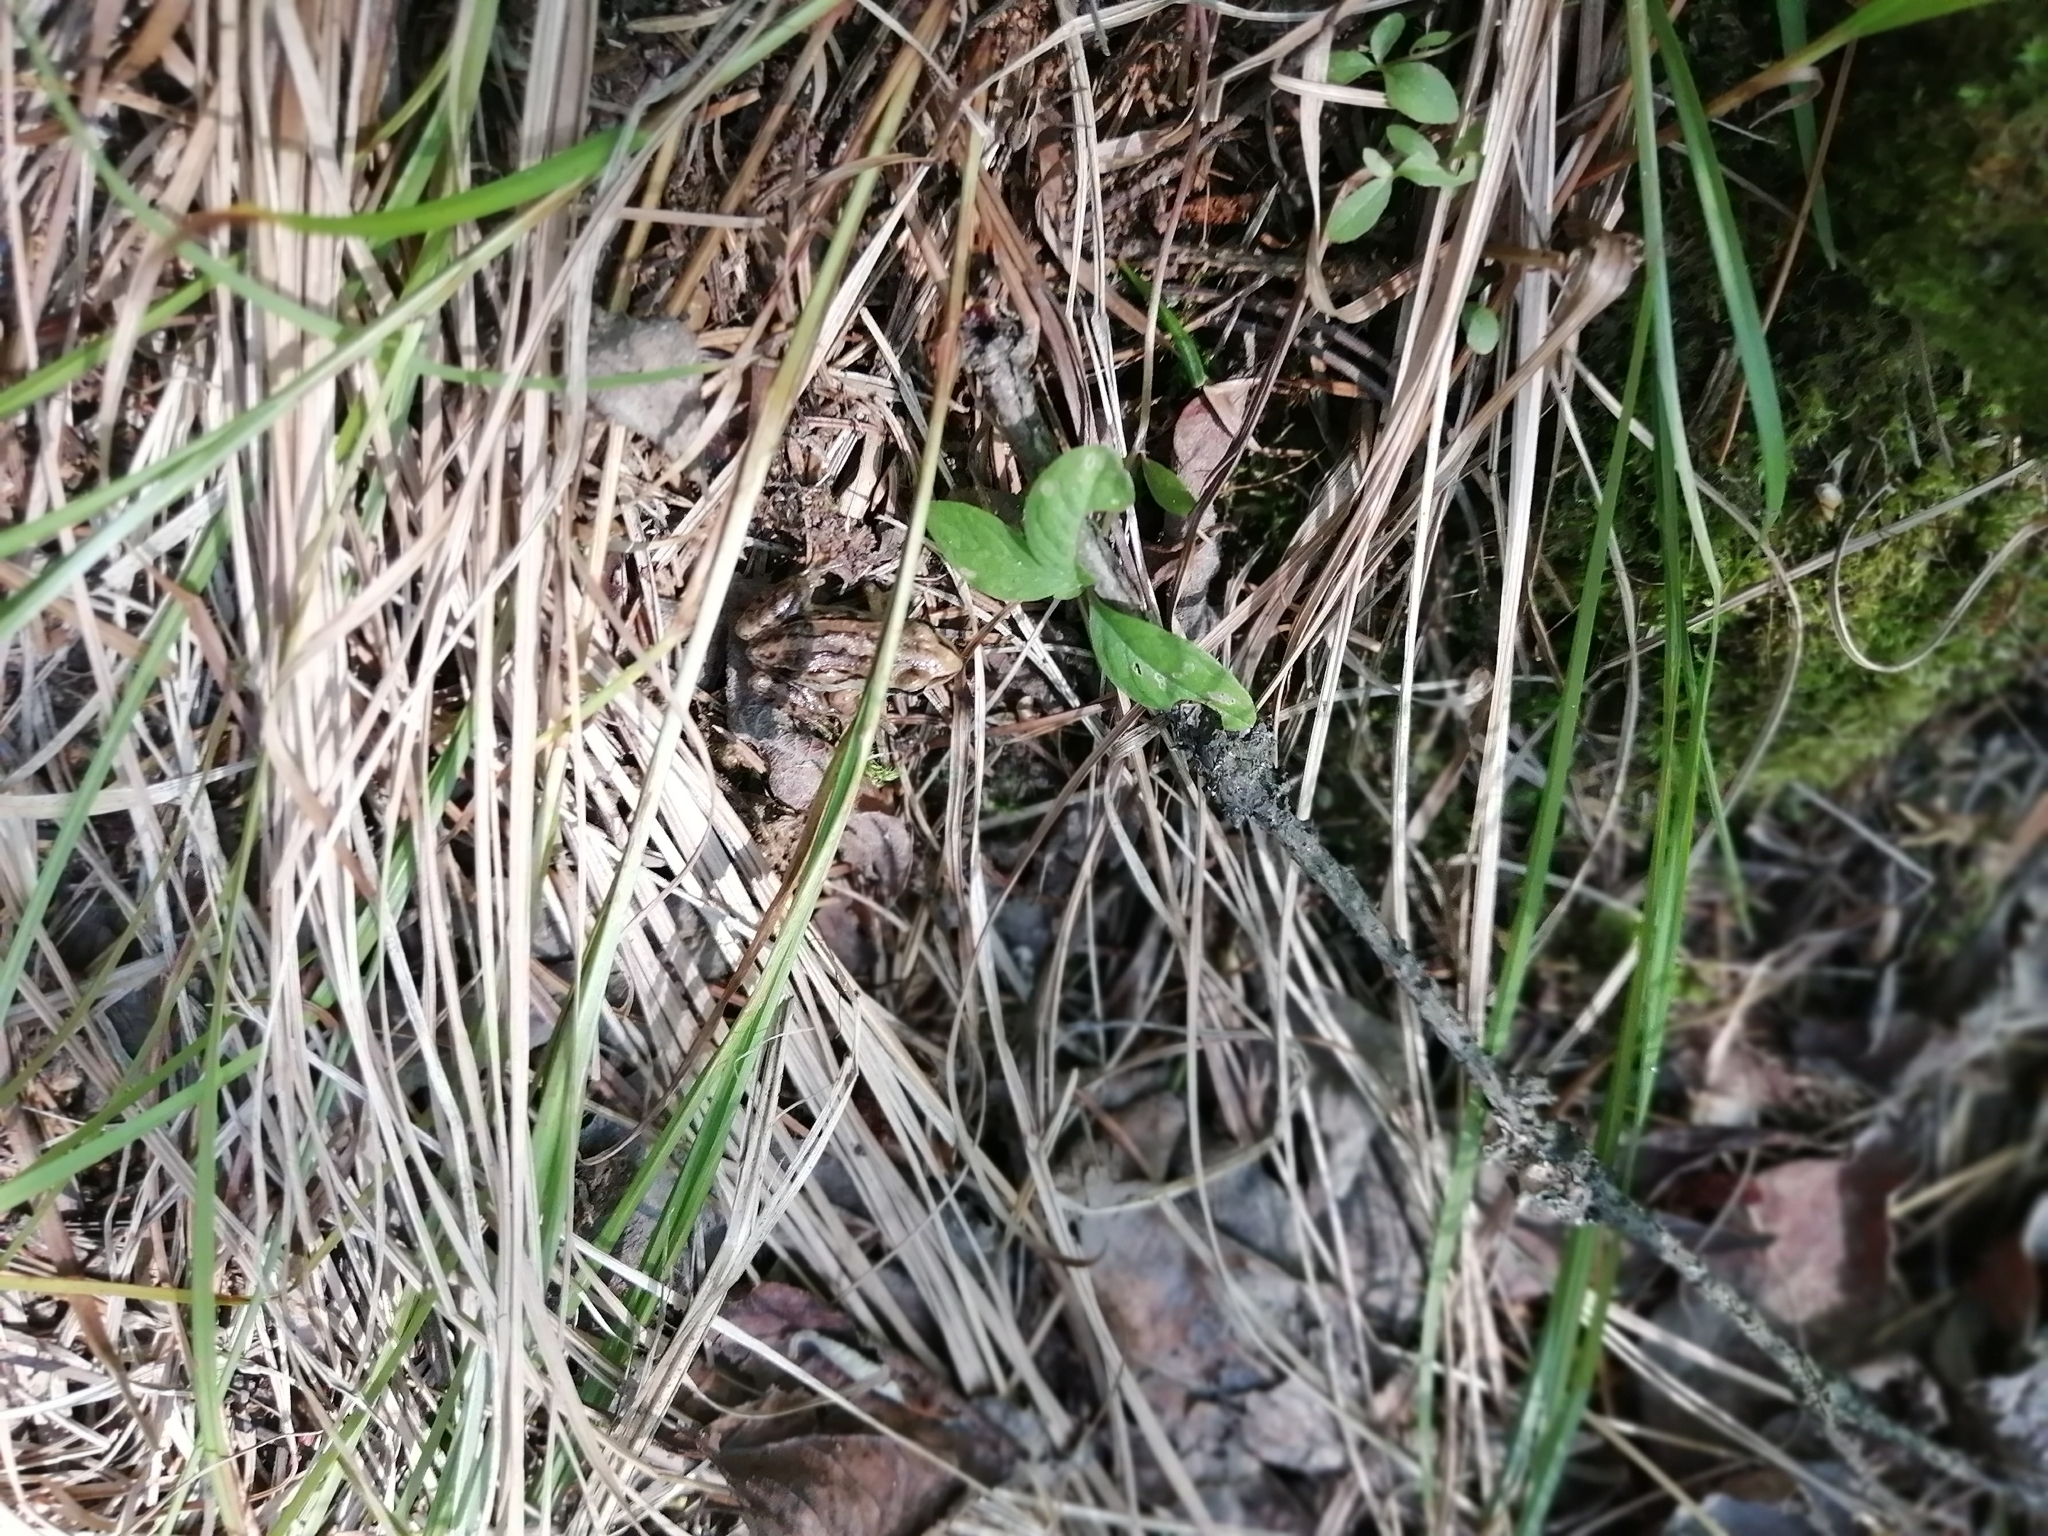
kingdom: Animalia
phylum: Chordata
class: Amphibia
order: Anura
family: Ranidae
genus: Rana
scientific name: Rana arvalis
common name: Moor frog
